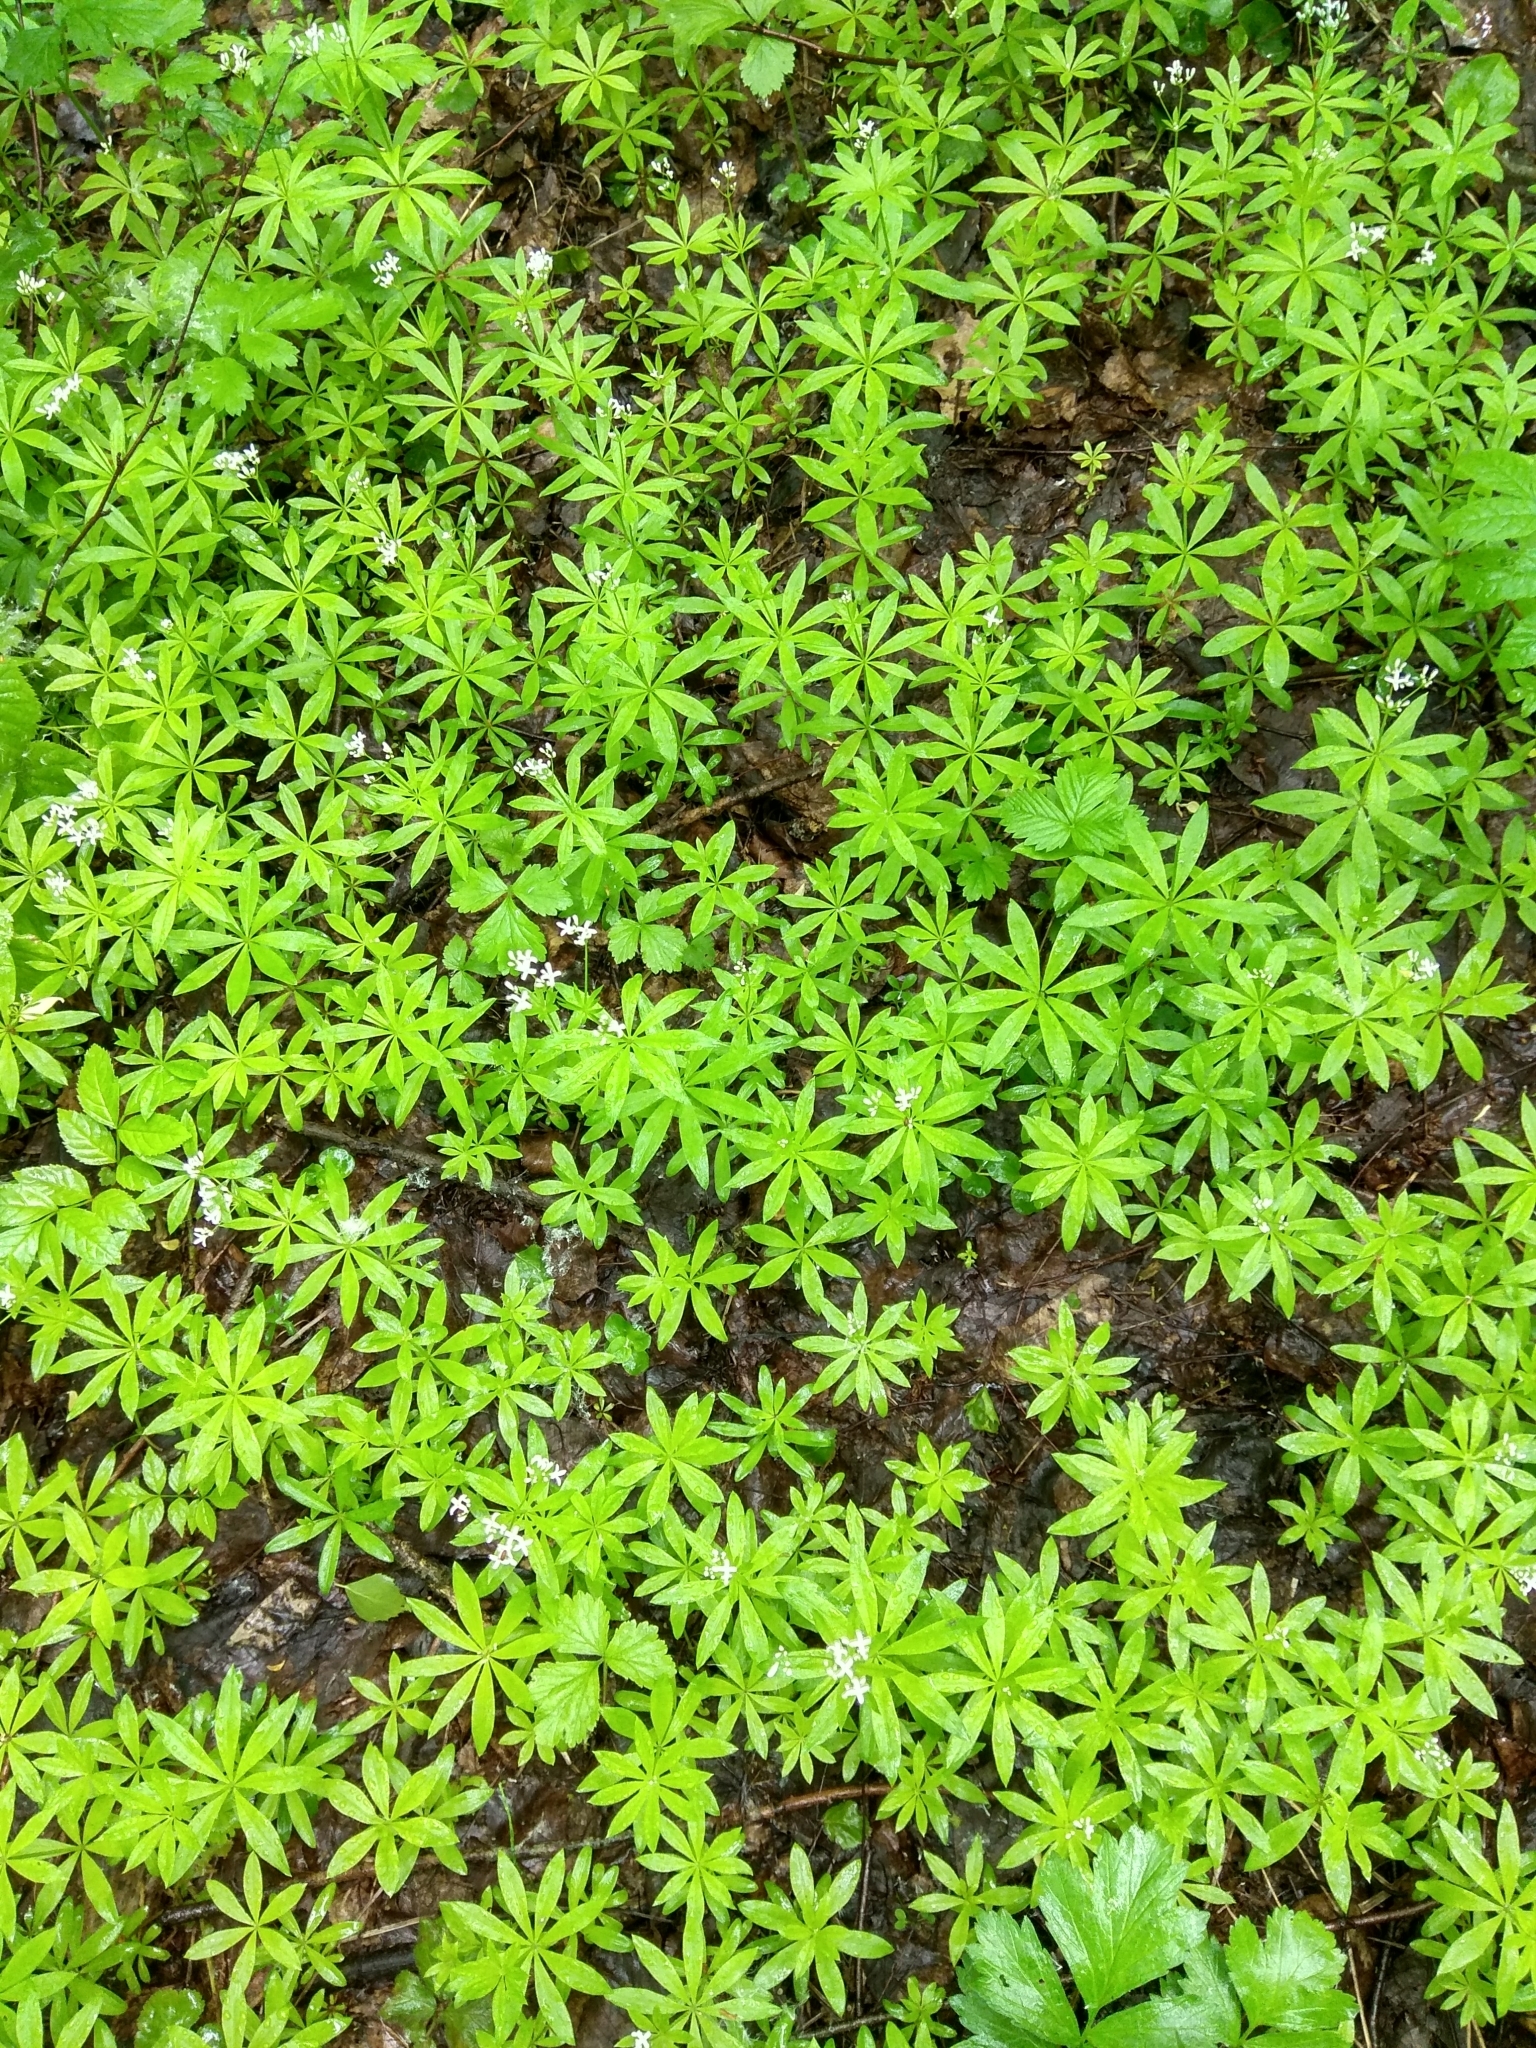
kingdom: Plantae
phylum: Tracheophyta
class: Magnoliopsida
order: Gentianales
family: Rubiaceae
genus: Galium
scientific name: Galium odoratum
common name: Sweet woodruff
